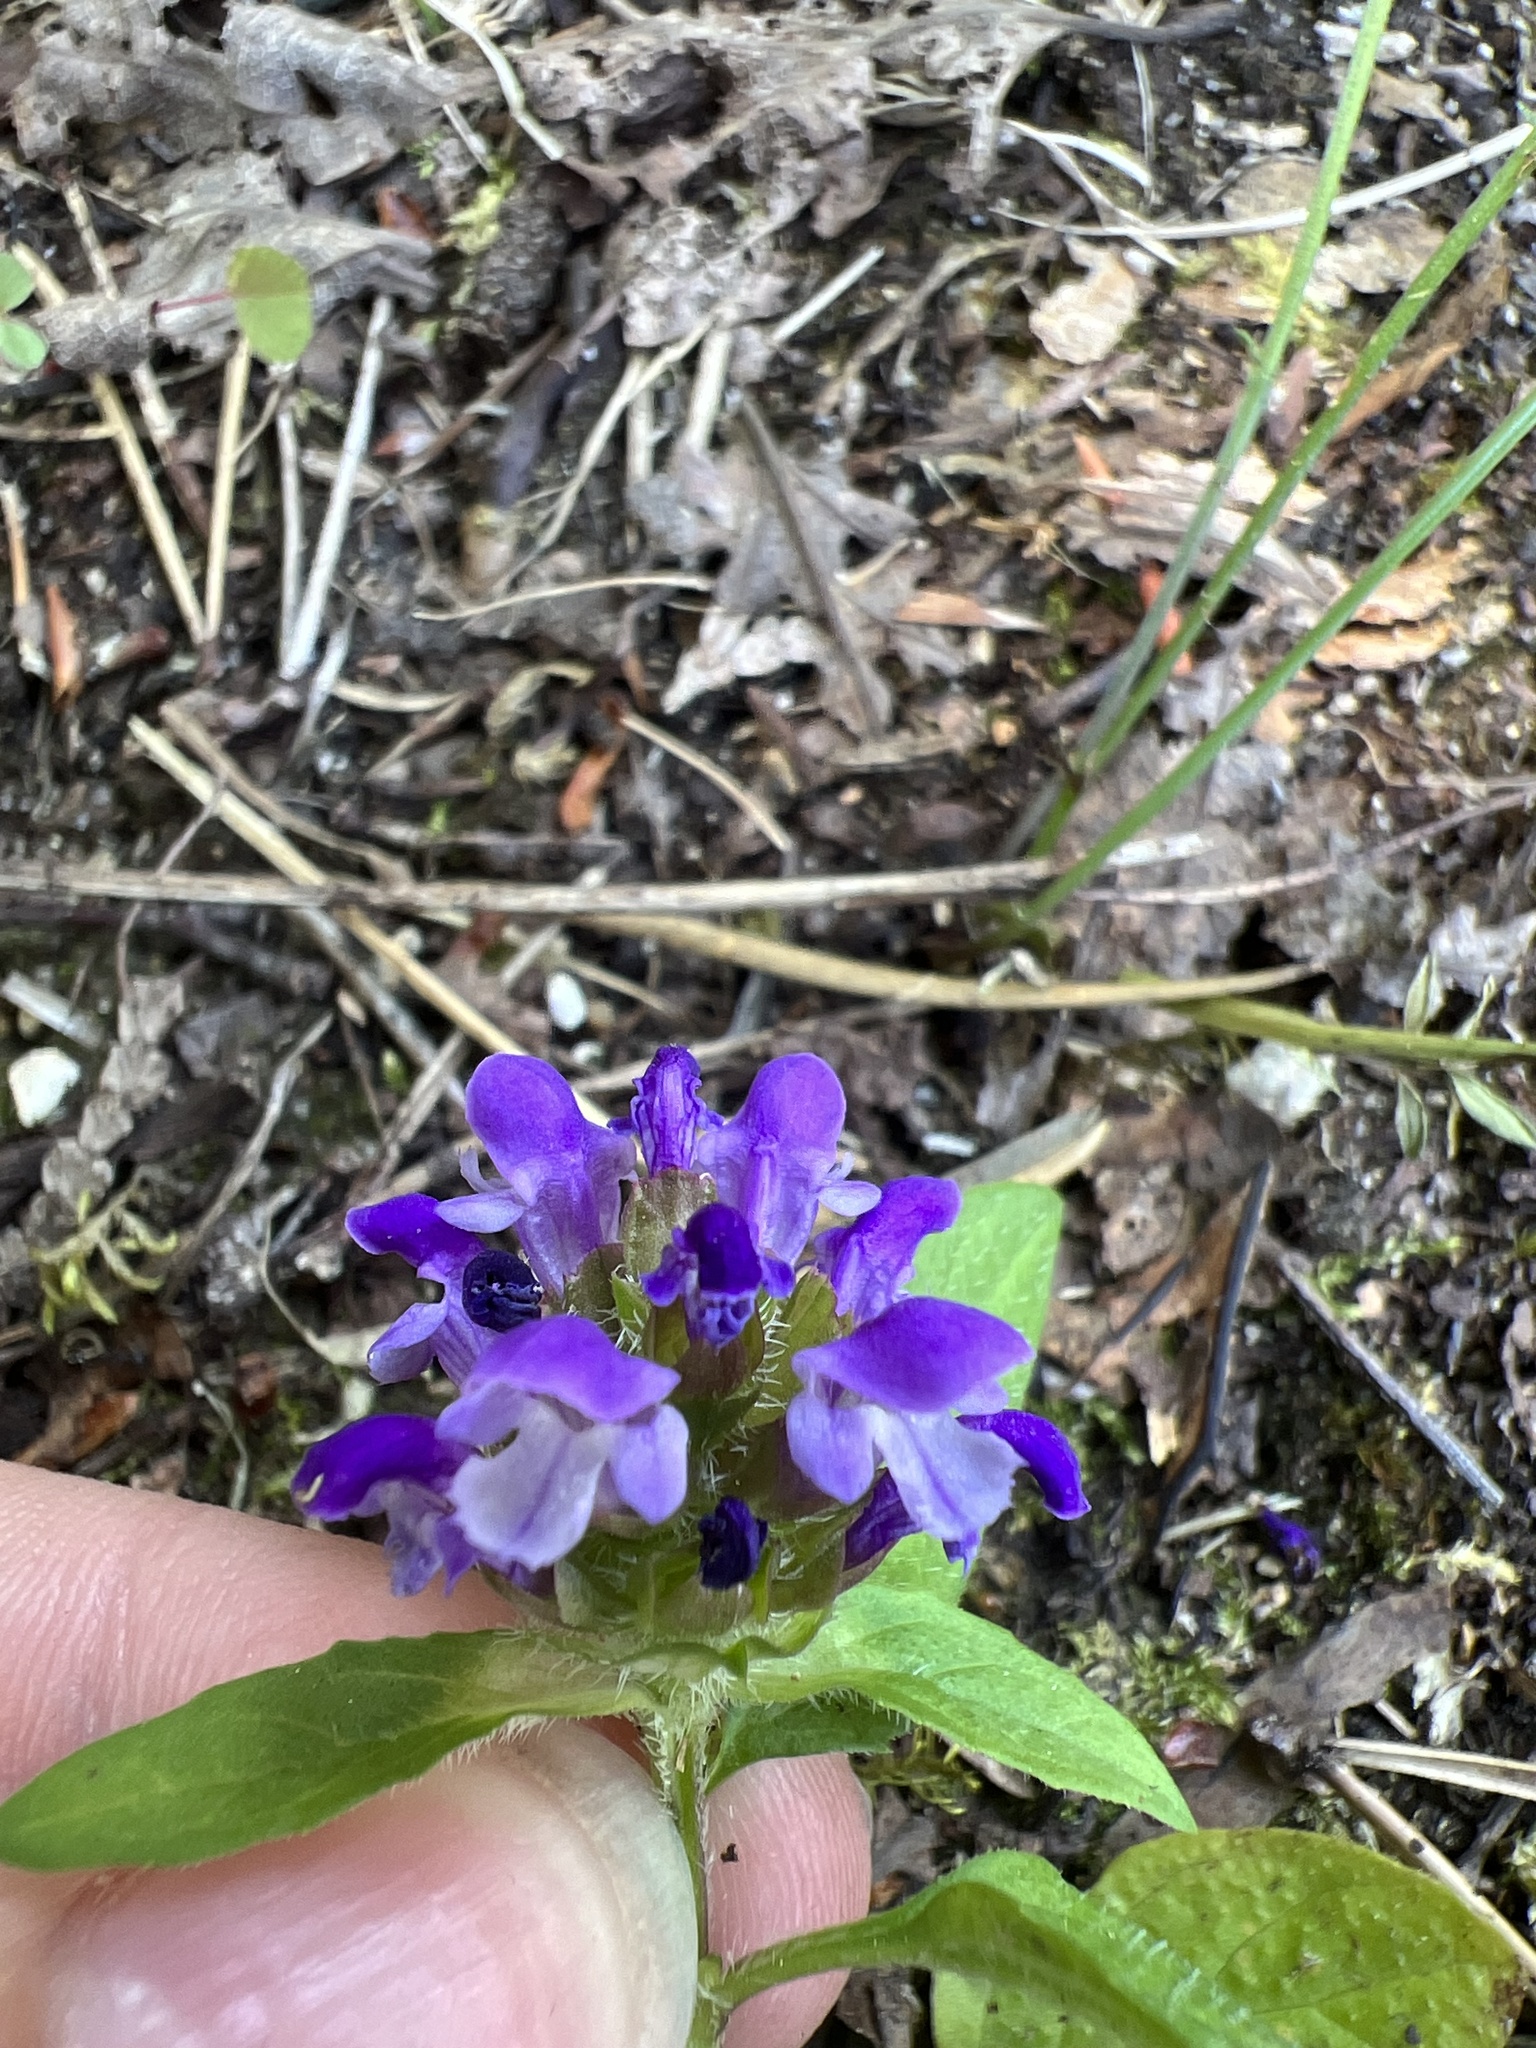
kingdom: Plantae
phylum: Tracheophyta
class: Magnoliopsida
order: Lamiales
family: Lamiaceae
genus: Prunella
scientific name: Prunella vulgaris
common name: Heal-all
